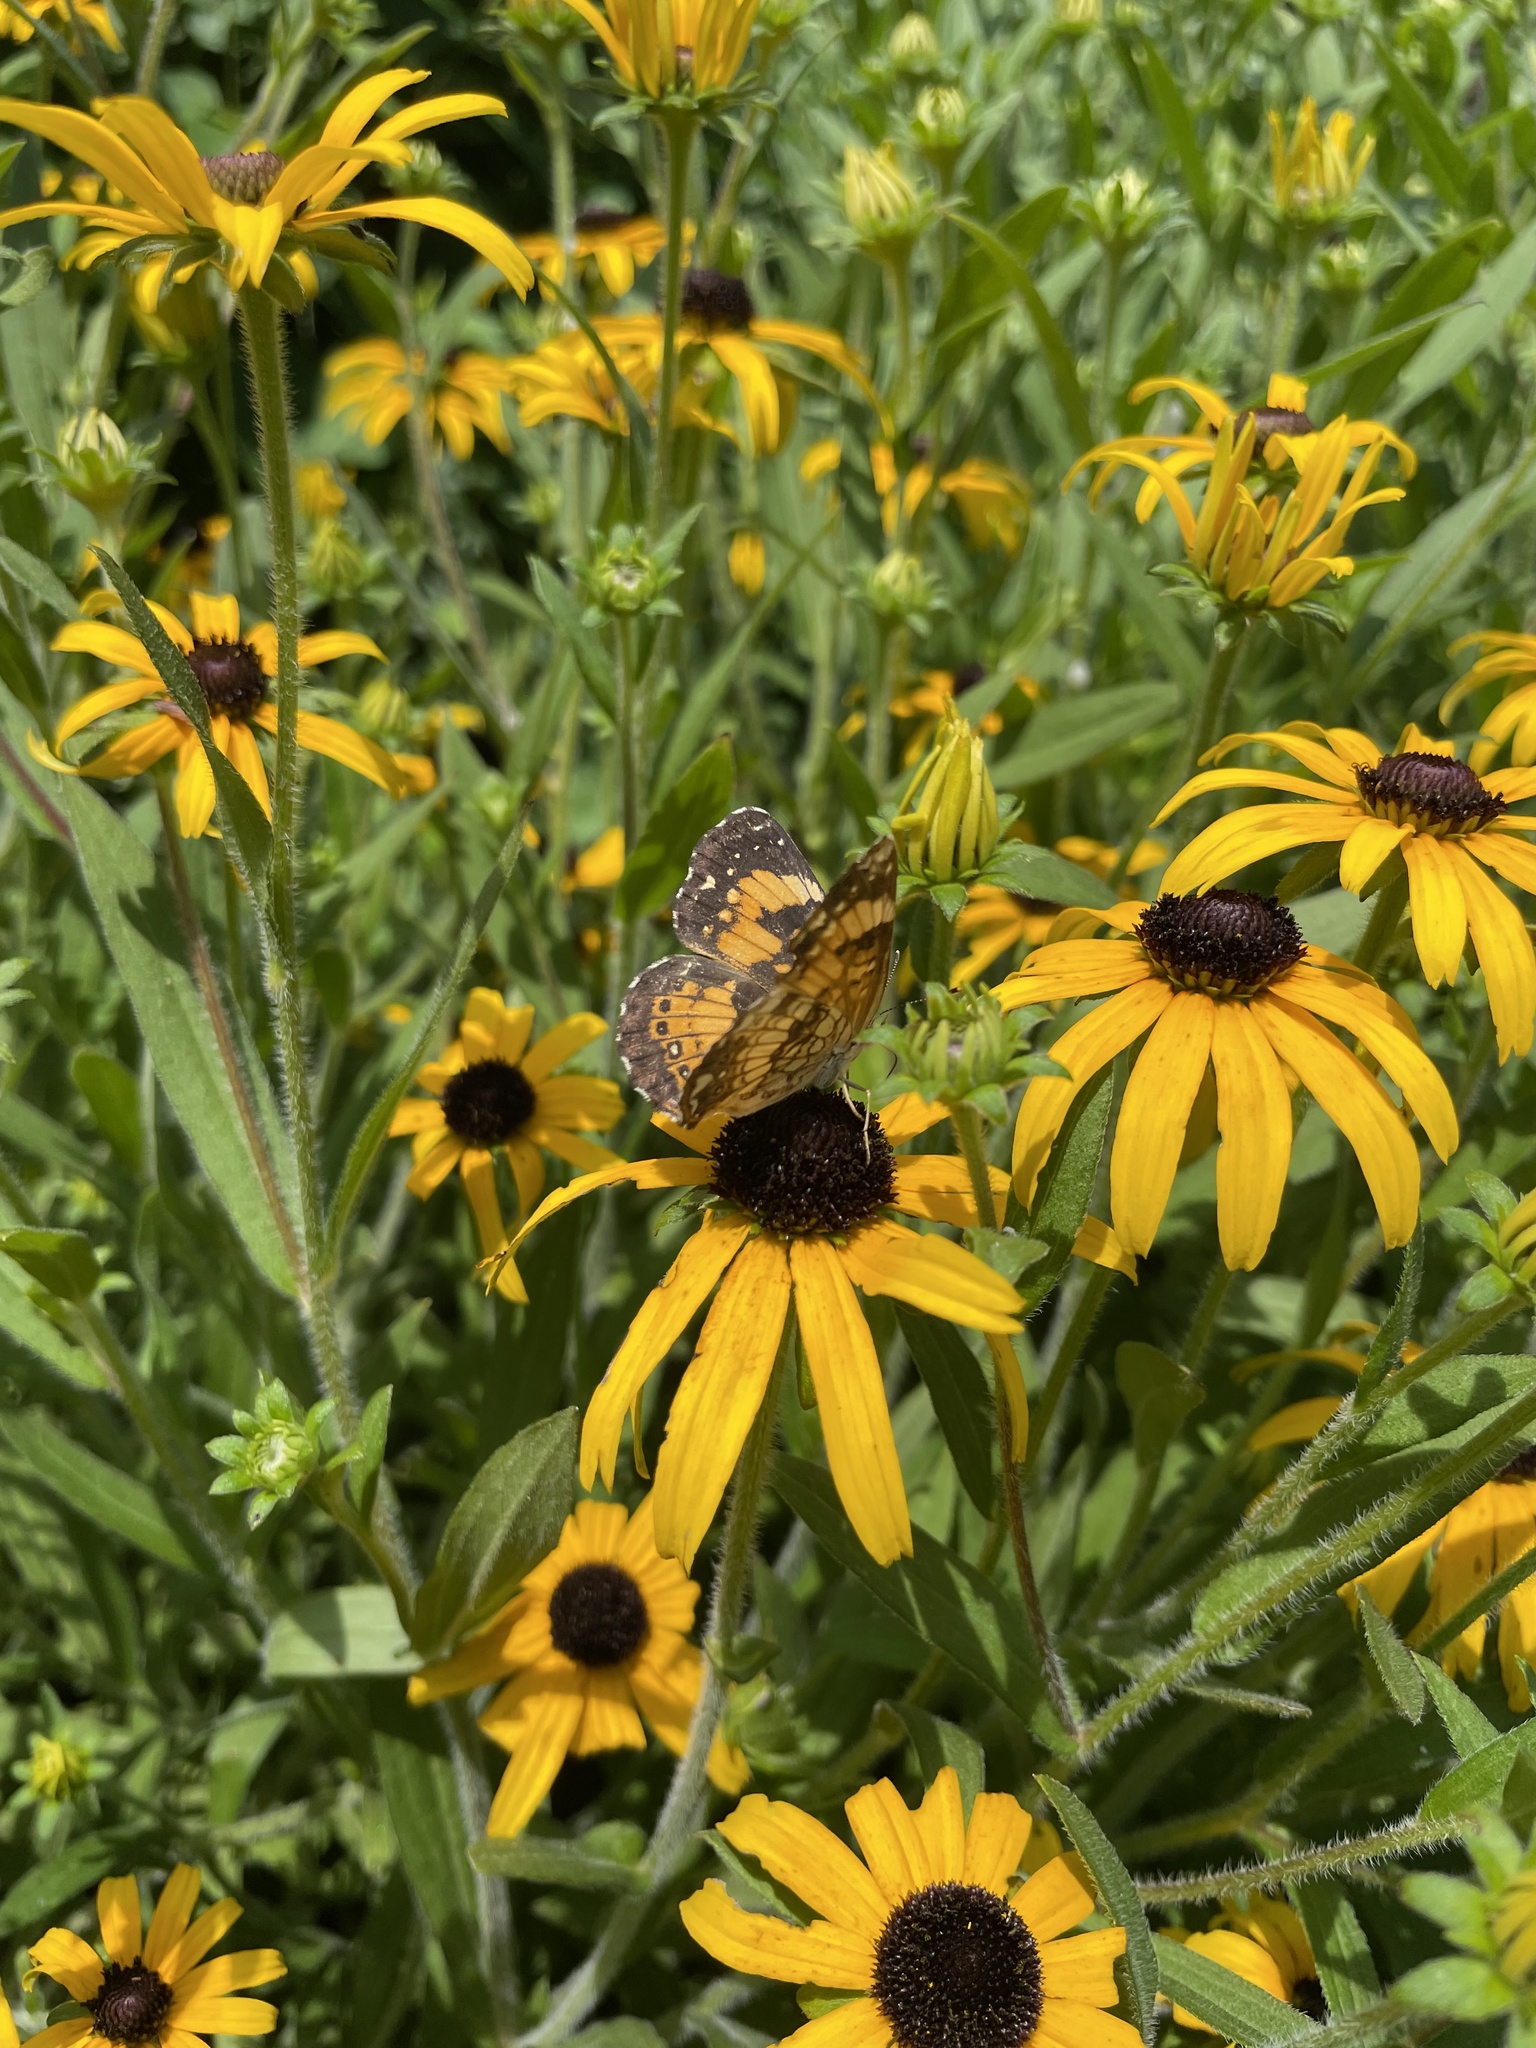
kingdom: Animalia
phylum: Arthropoda
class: Insecta
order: Lepidoptera
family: Nymphalidae
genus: Chlosyne
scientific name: Chlosyne nycteis
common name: Silvery checkerspot
